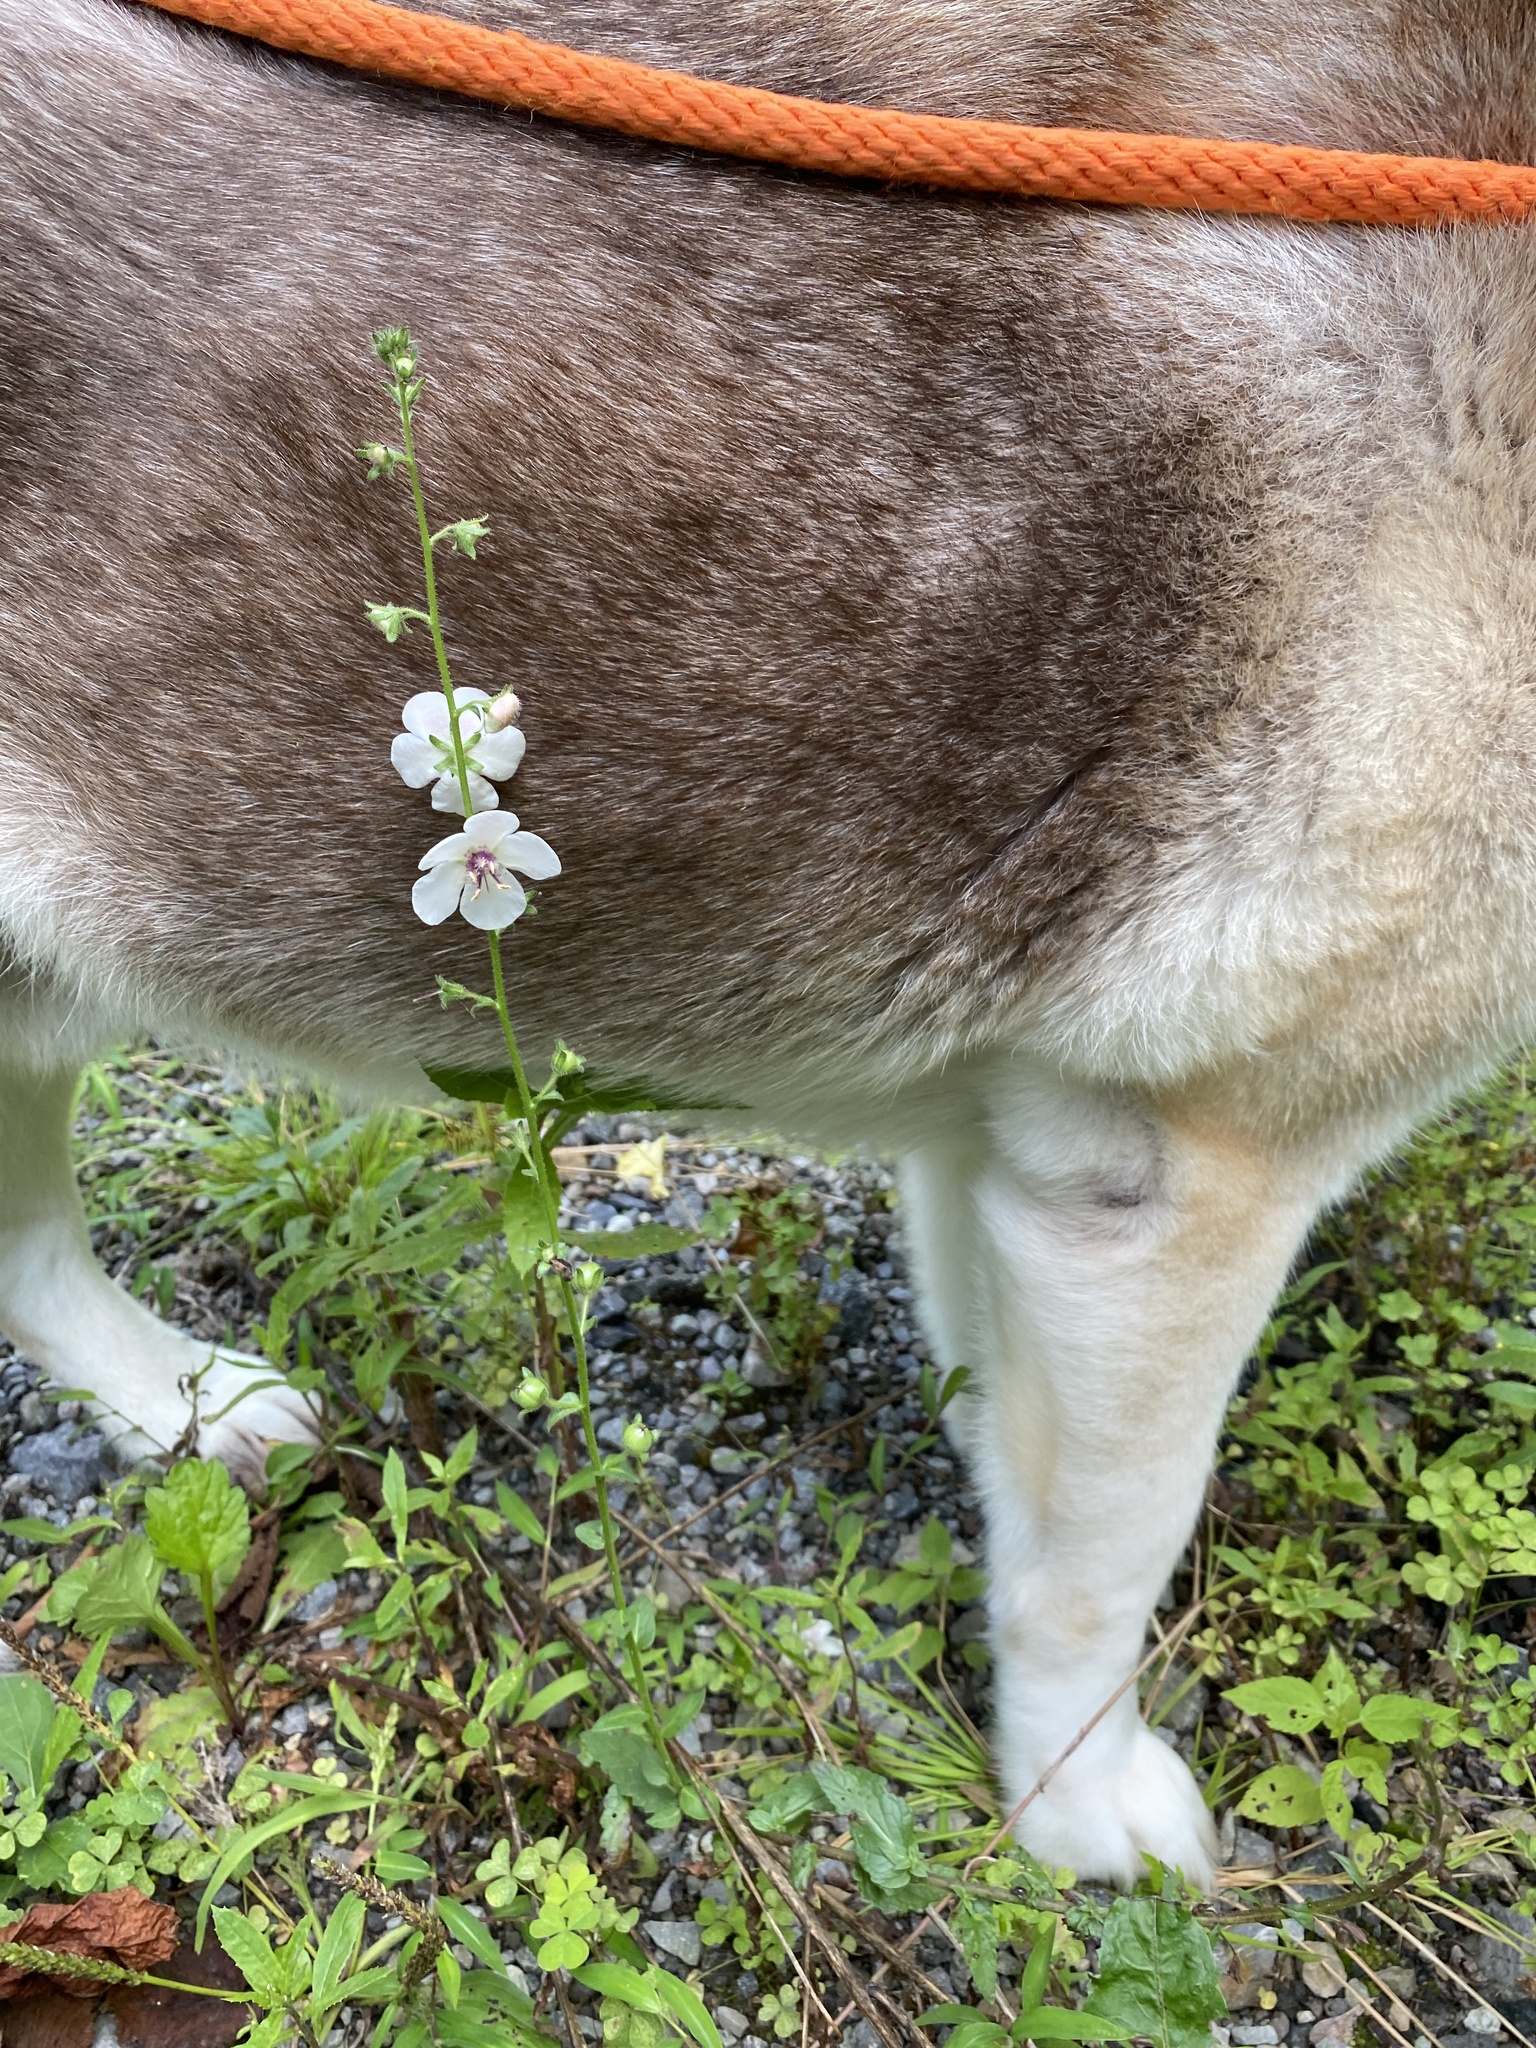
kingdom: Plantae
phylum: Tracheophyta
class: Magnoliopsida
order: Lamiales
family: Scrophulariaceae
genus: Verbascum
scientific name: Verbascum blattaria
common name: Moth mullein
